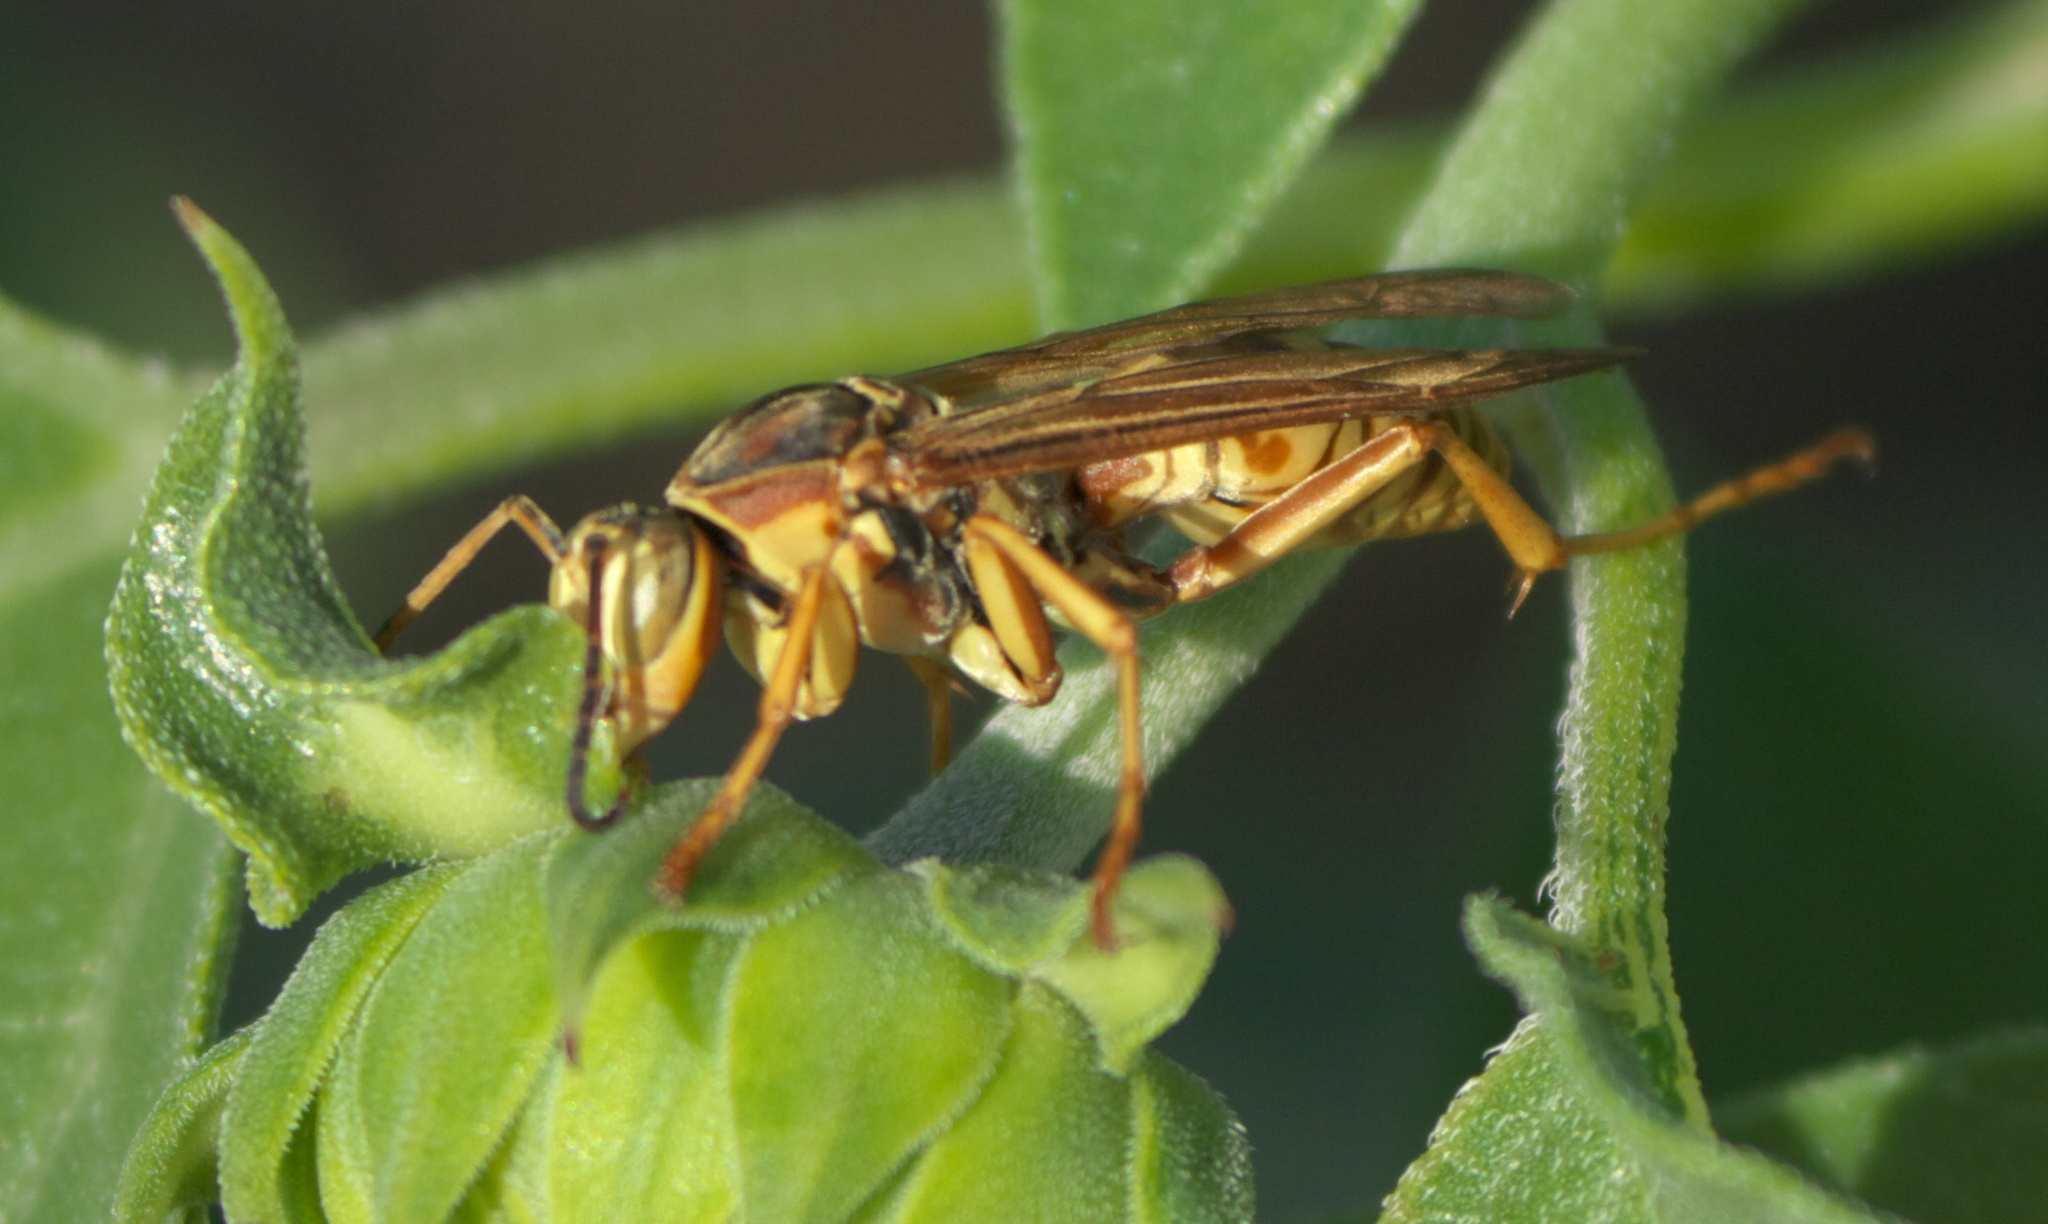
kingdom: Animalia
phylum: Arthropoda
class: Insecta
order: Hymenoptera
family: Eumenidae
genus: Polistes
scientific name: Polistes fuscatus
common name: Dark paper wasp
